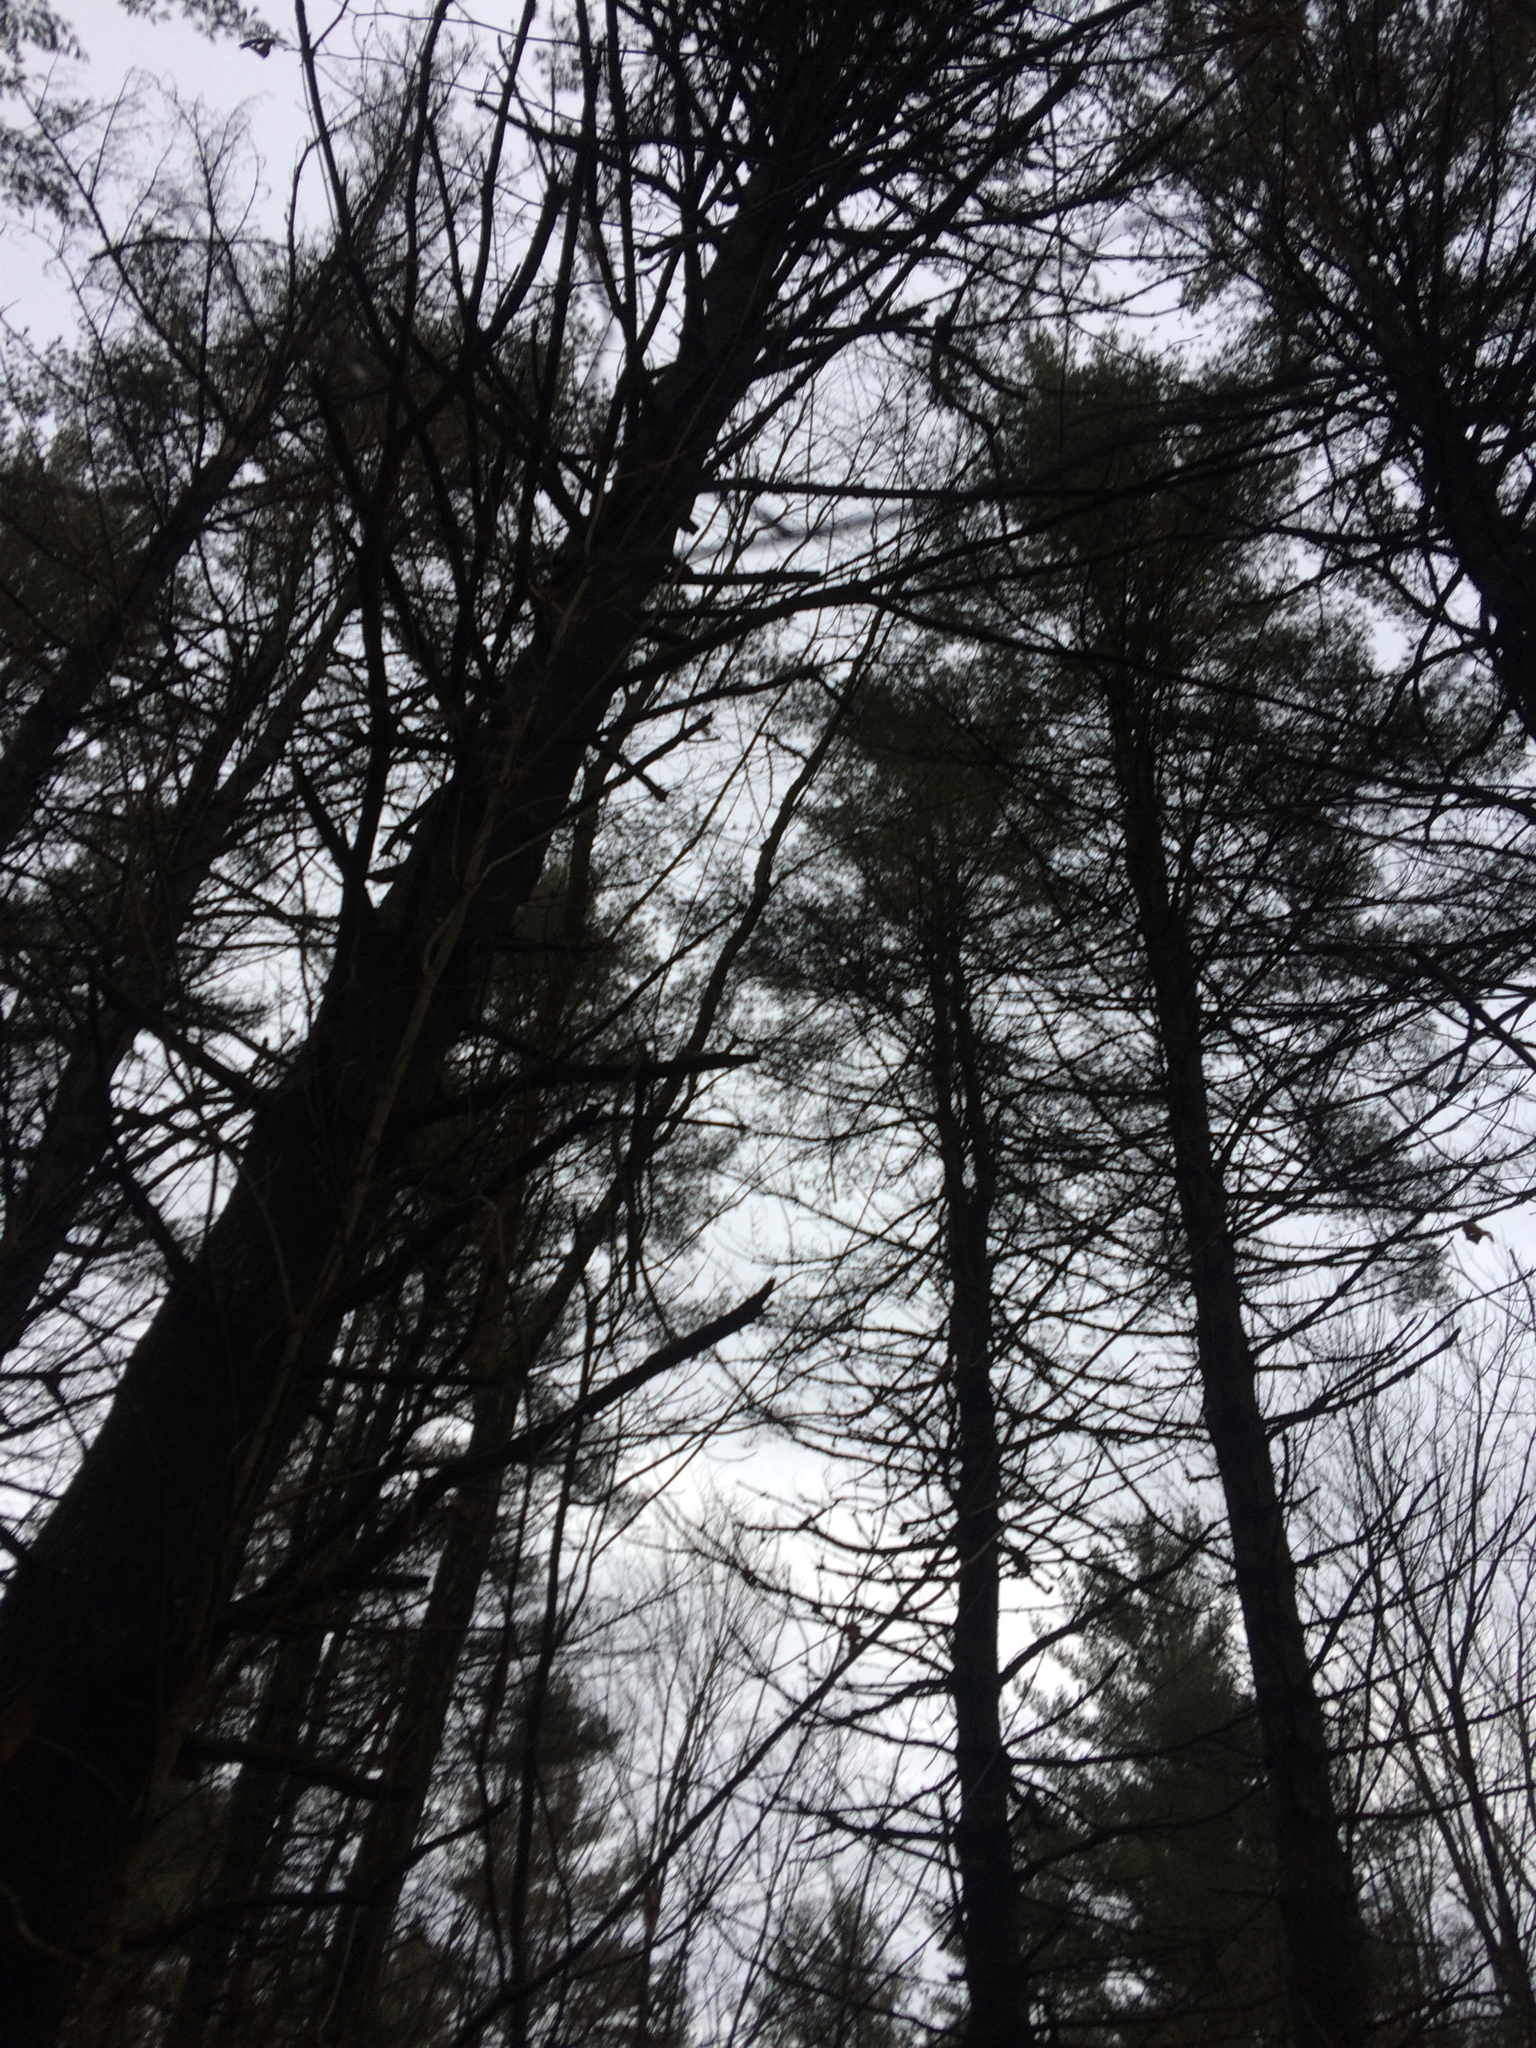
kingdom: Plantae
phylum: Tracheophyta
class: Pinopsida
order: Pinales
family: Pinaceae
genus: Pinus
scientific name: Pinus strobus
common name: Weymouth pine
